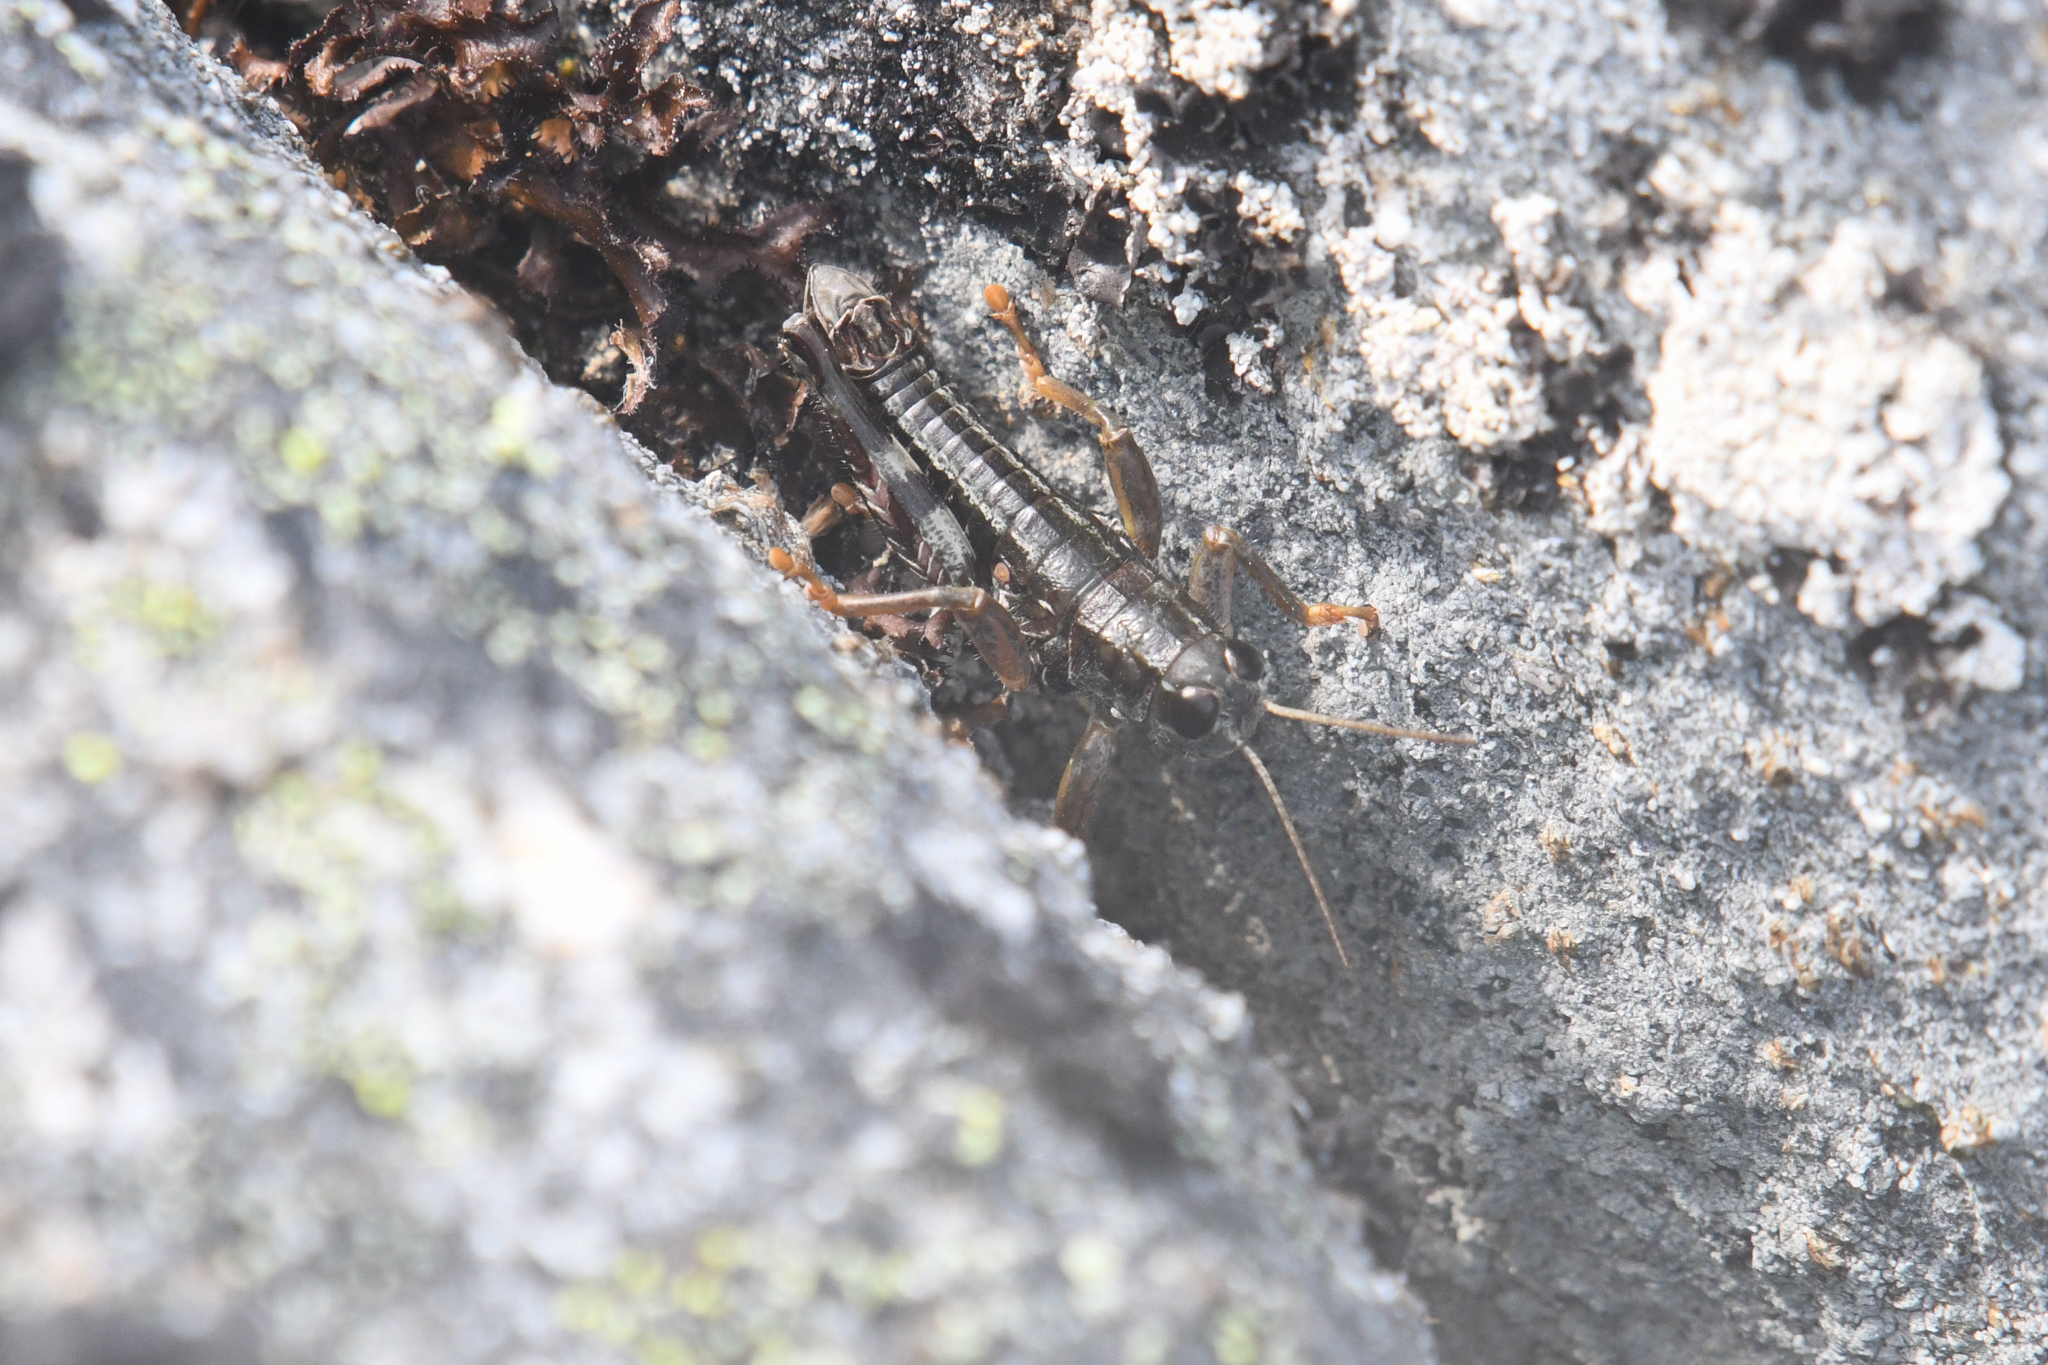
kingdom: Animalia
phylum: Arthropoda
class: Insecta
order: Orthoptera
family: Acrididae
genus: Buckellacris
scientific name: Buckellacris chilcotinae
